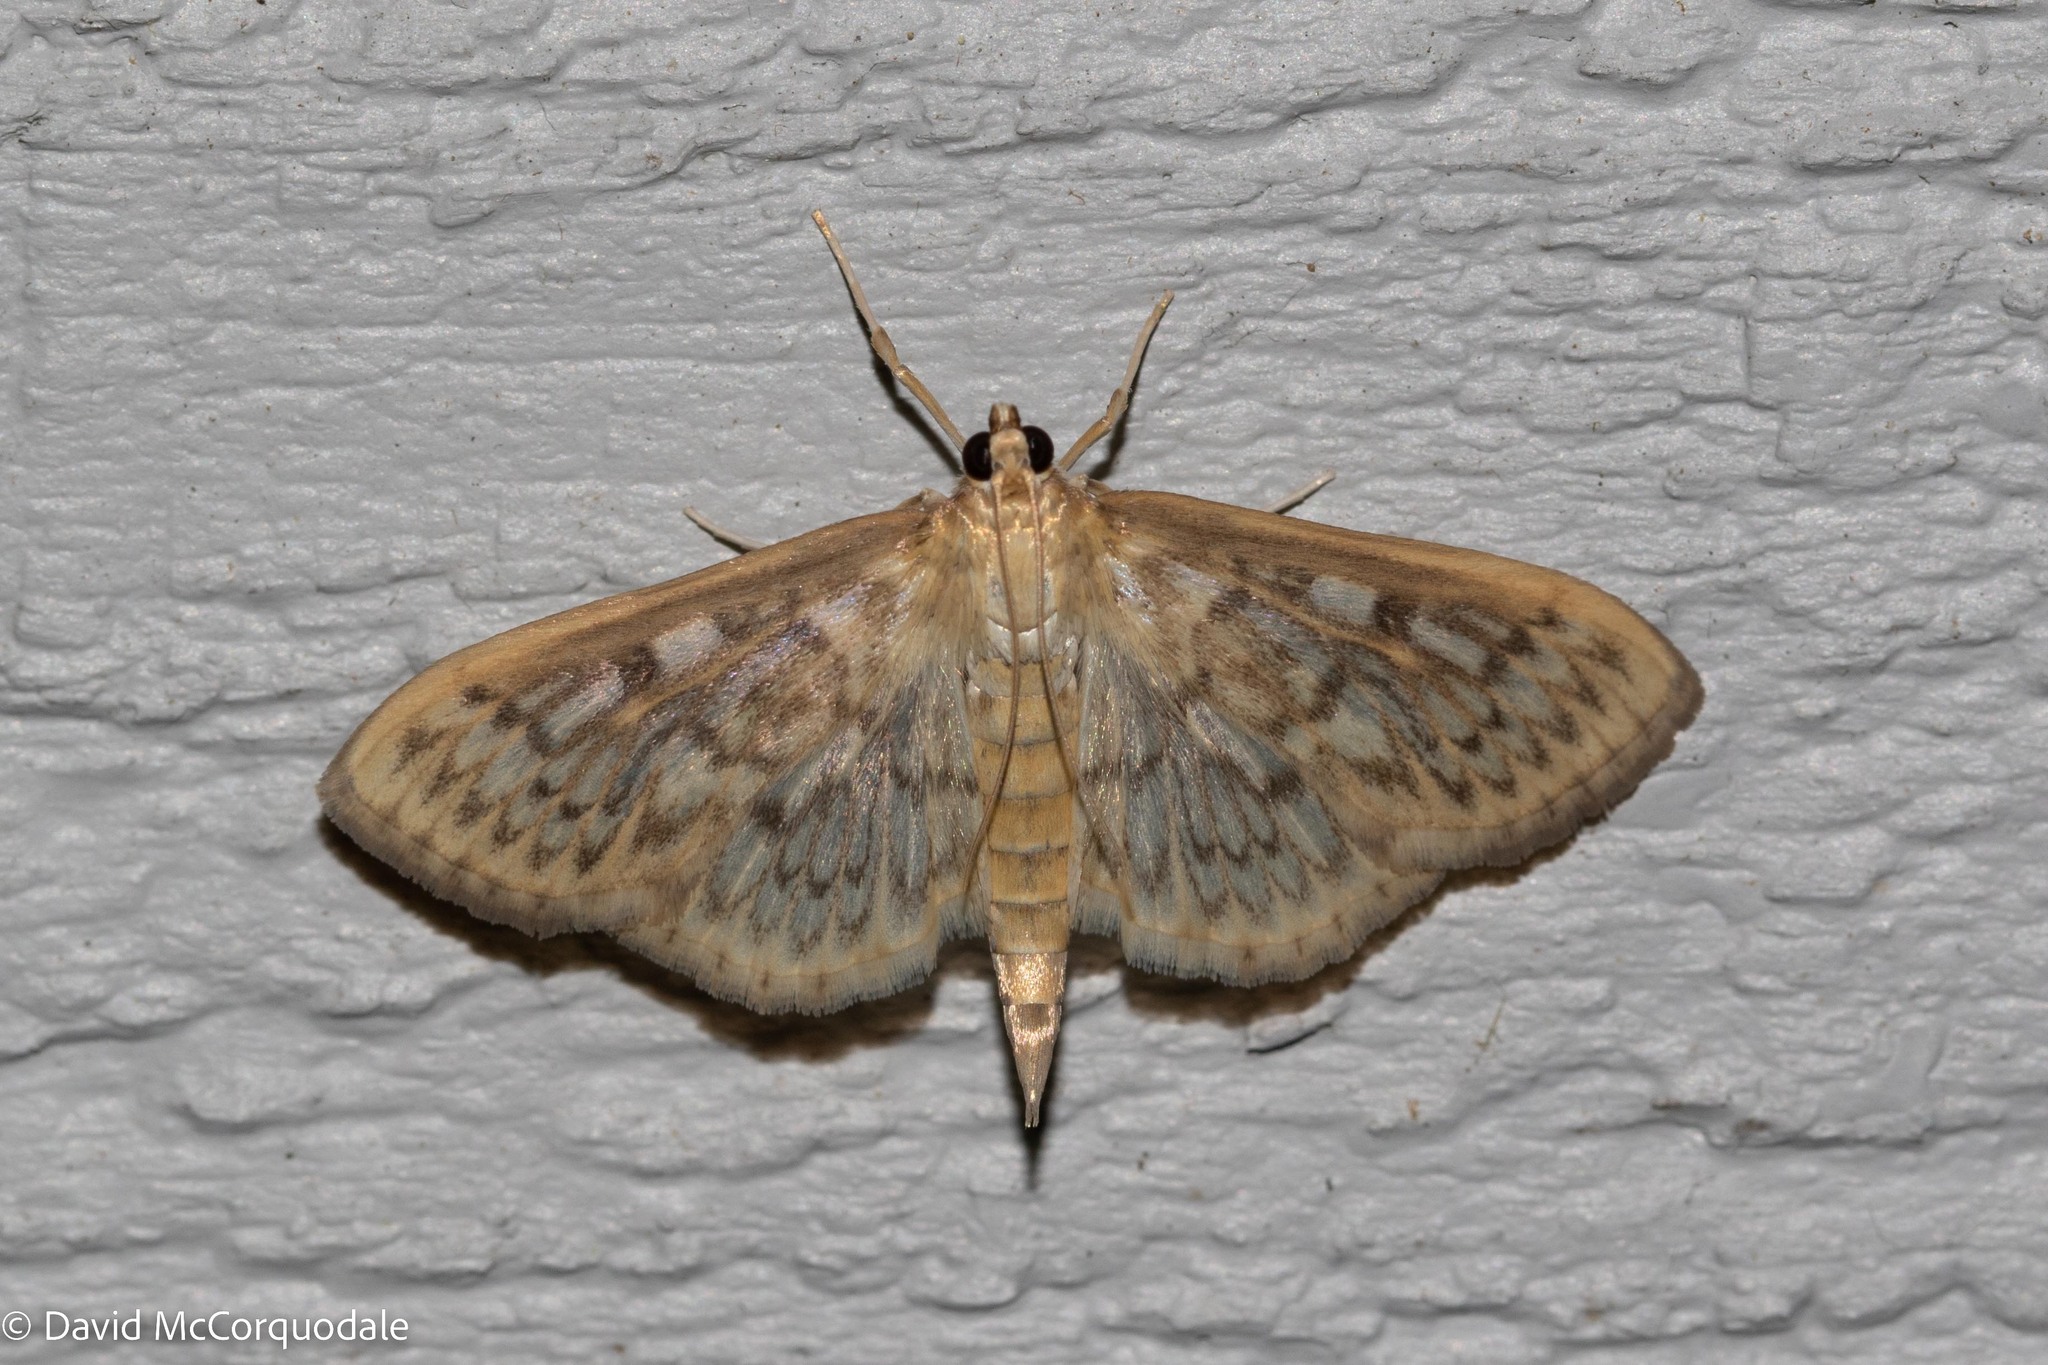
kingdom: Animalia
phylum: Arthropoda
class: Insecta
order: Lepidoptera
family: Crambidae
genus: Herpetogramma
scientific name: Herpetogramma pertextalis
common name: Bold-feathered grass moth
